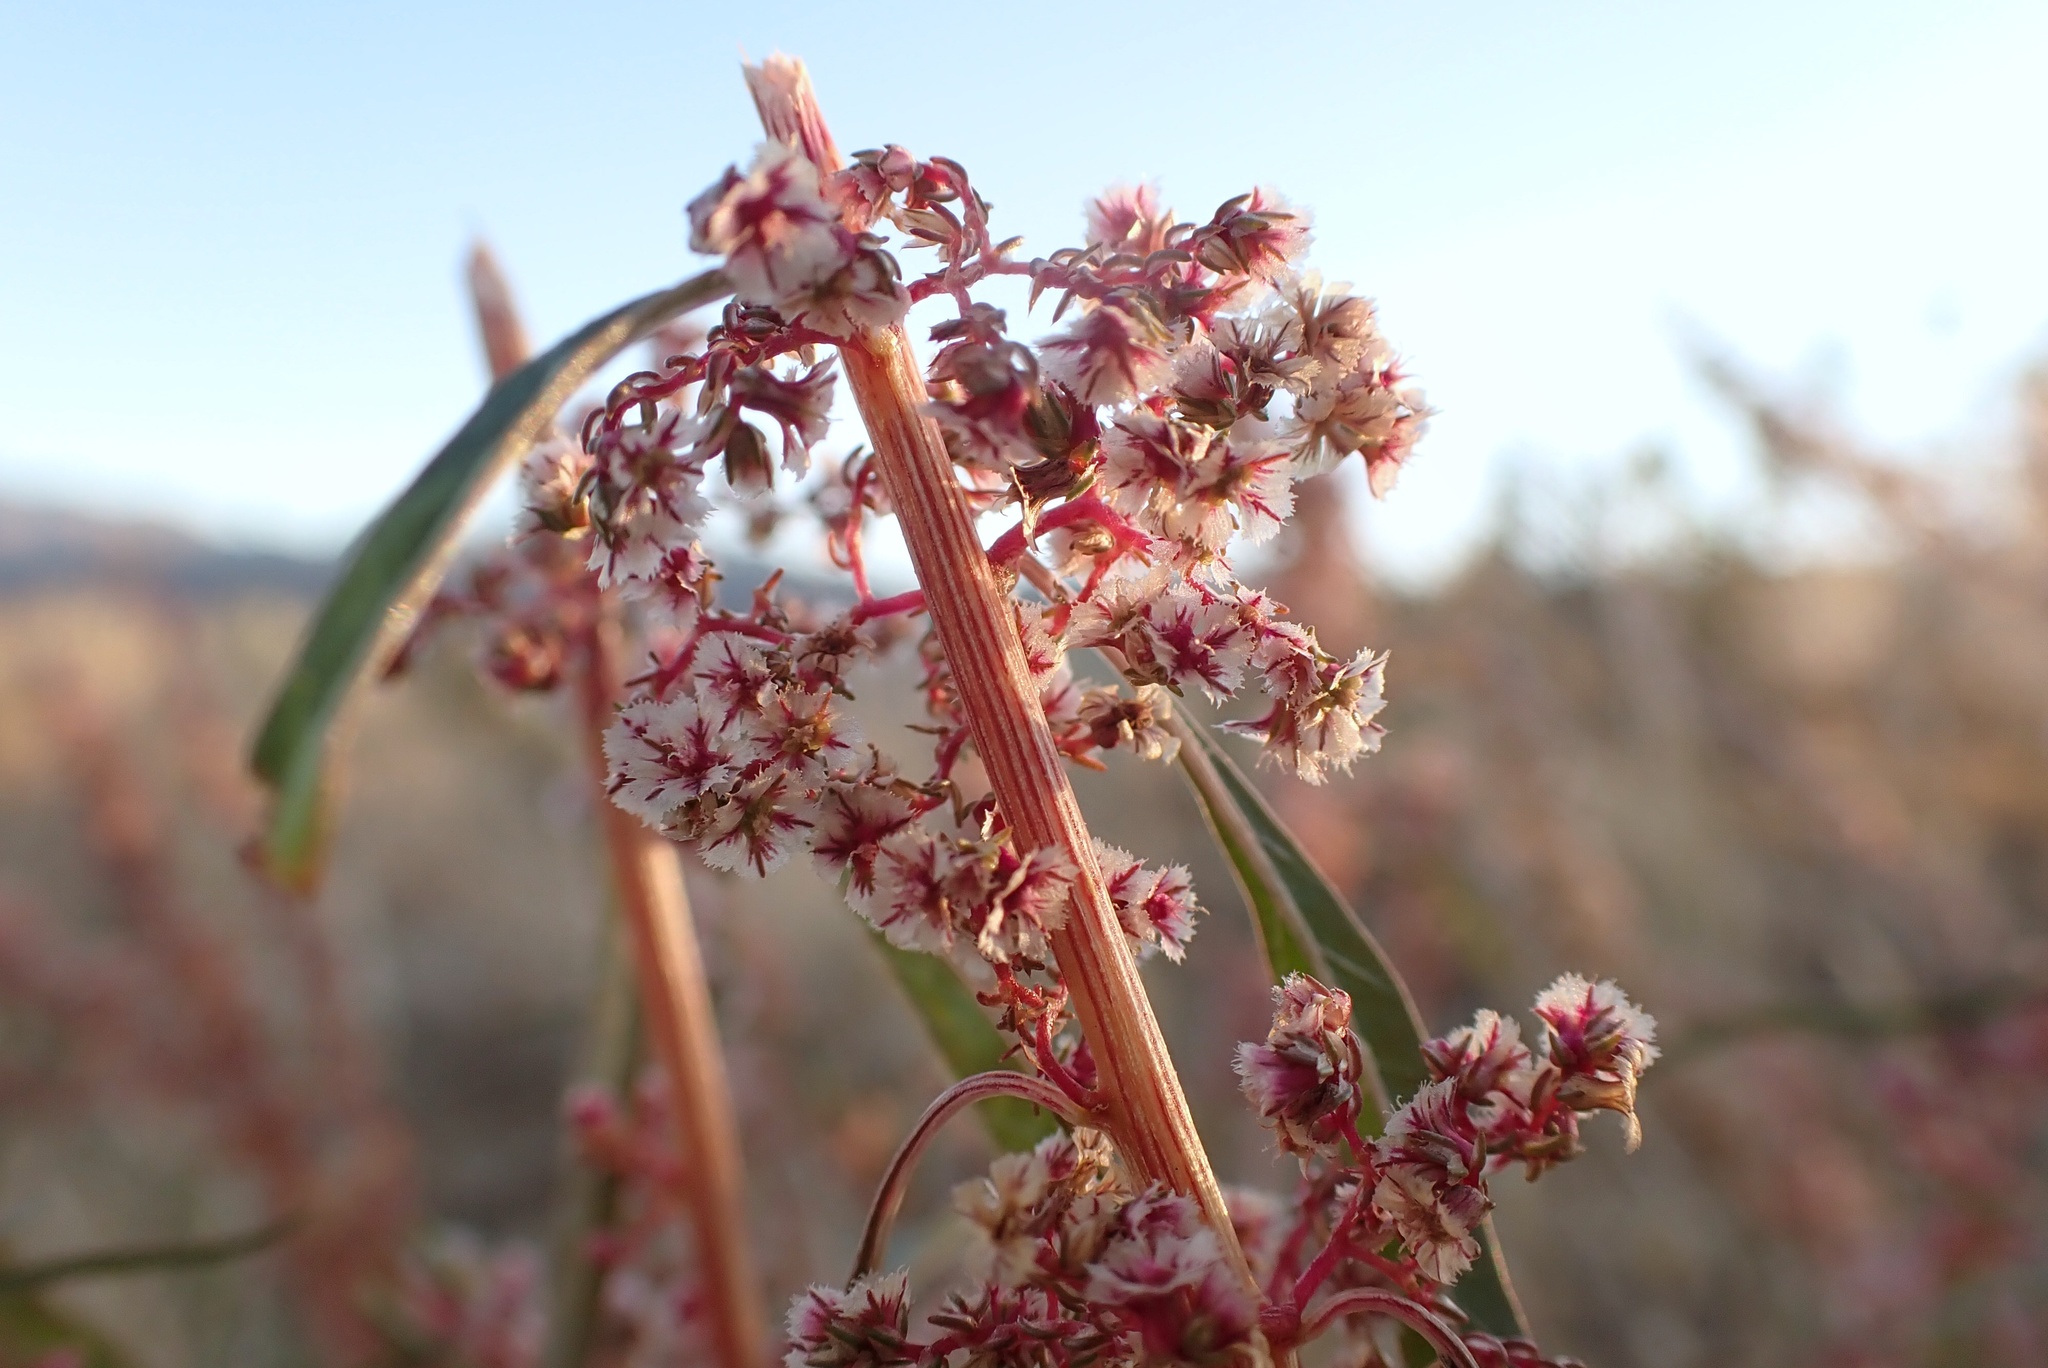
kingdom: Plantae
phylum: Tracheophyta
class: Magnoliopsida
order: Caryophyllales
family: Amaranthaceae
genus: Amaranthus
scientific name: Amaranthus fimbriatus
